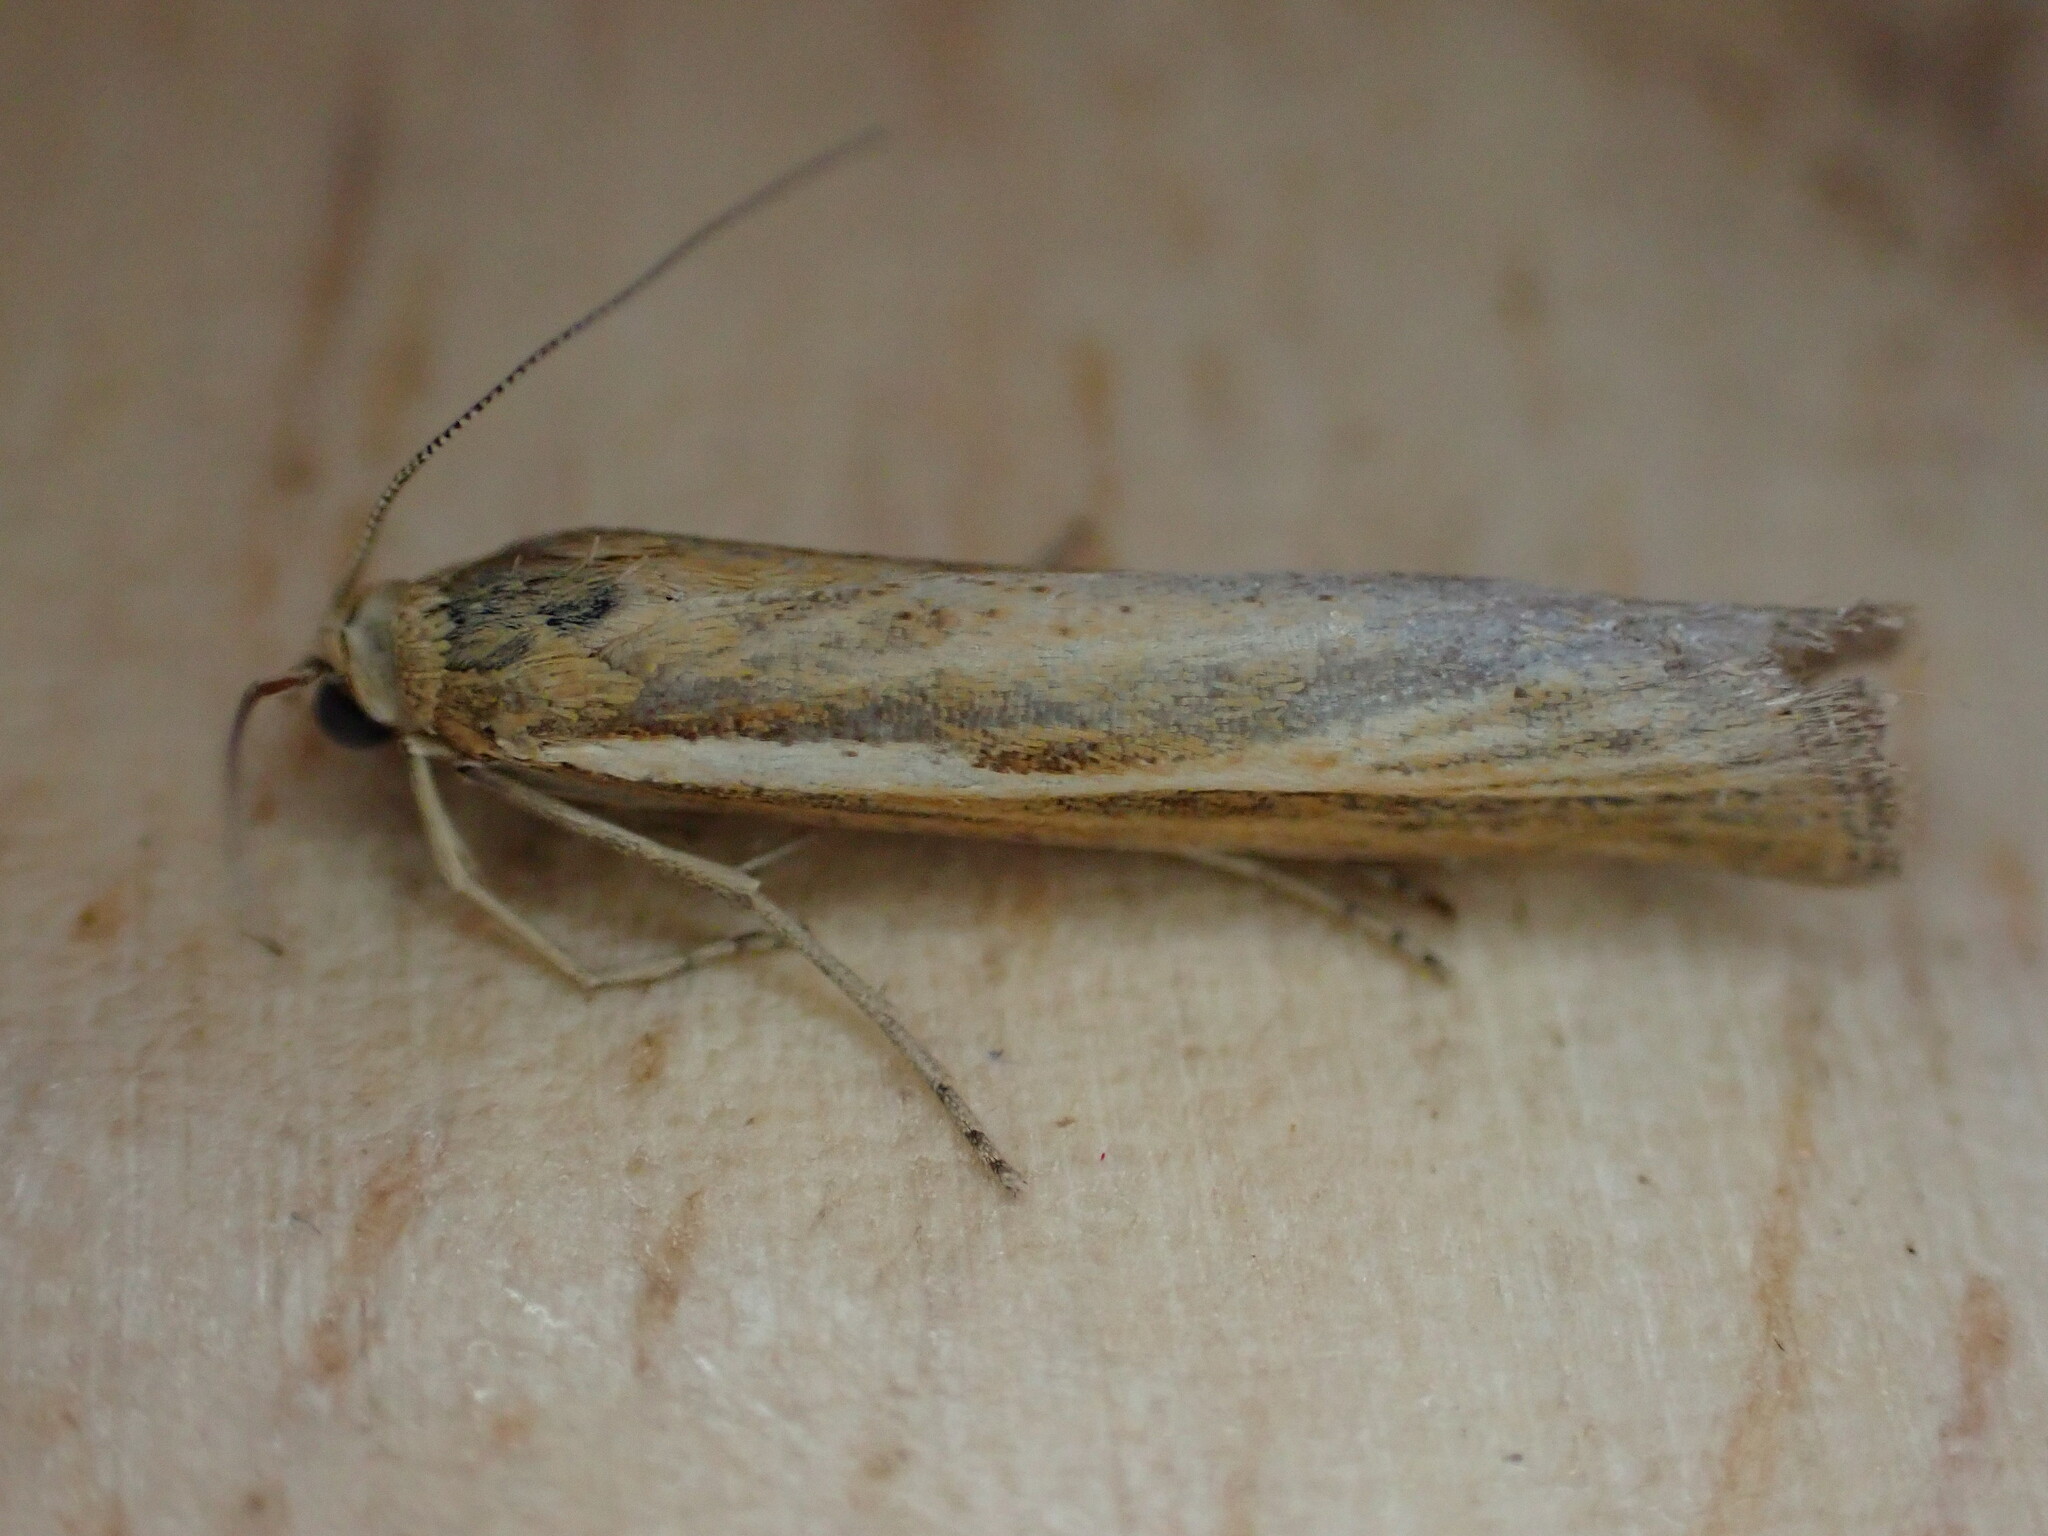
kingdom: Animalia
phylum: Arthropoda
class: Insecta
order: Lepidoptera
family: Crambidae
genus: Agriphila
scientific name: Agriphila tristellus
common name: Common grass-veneer
